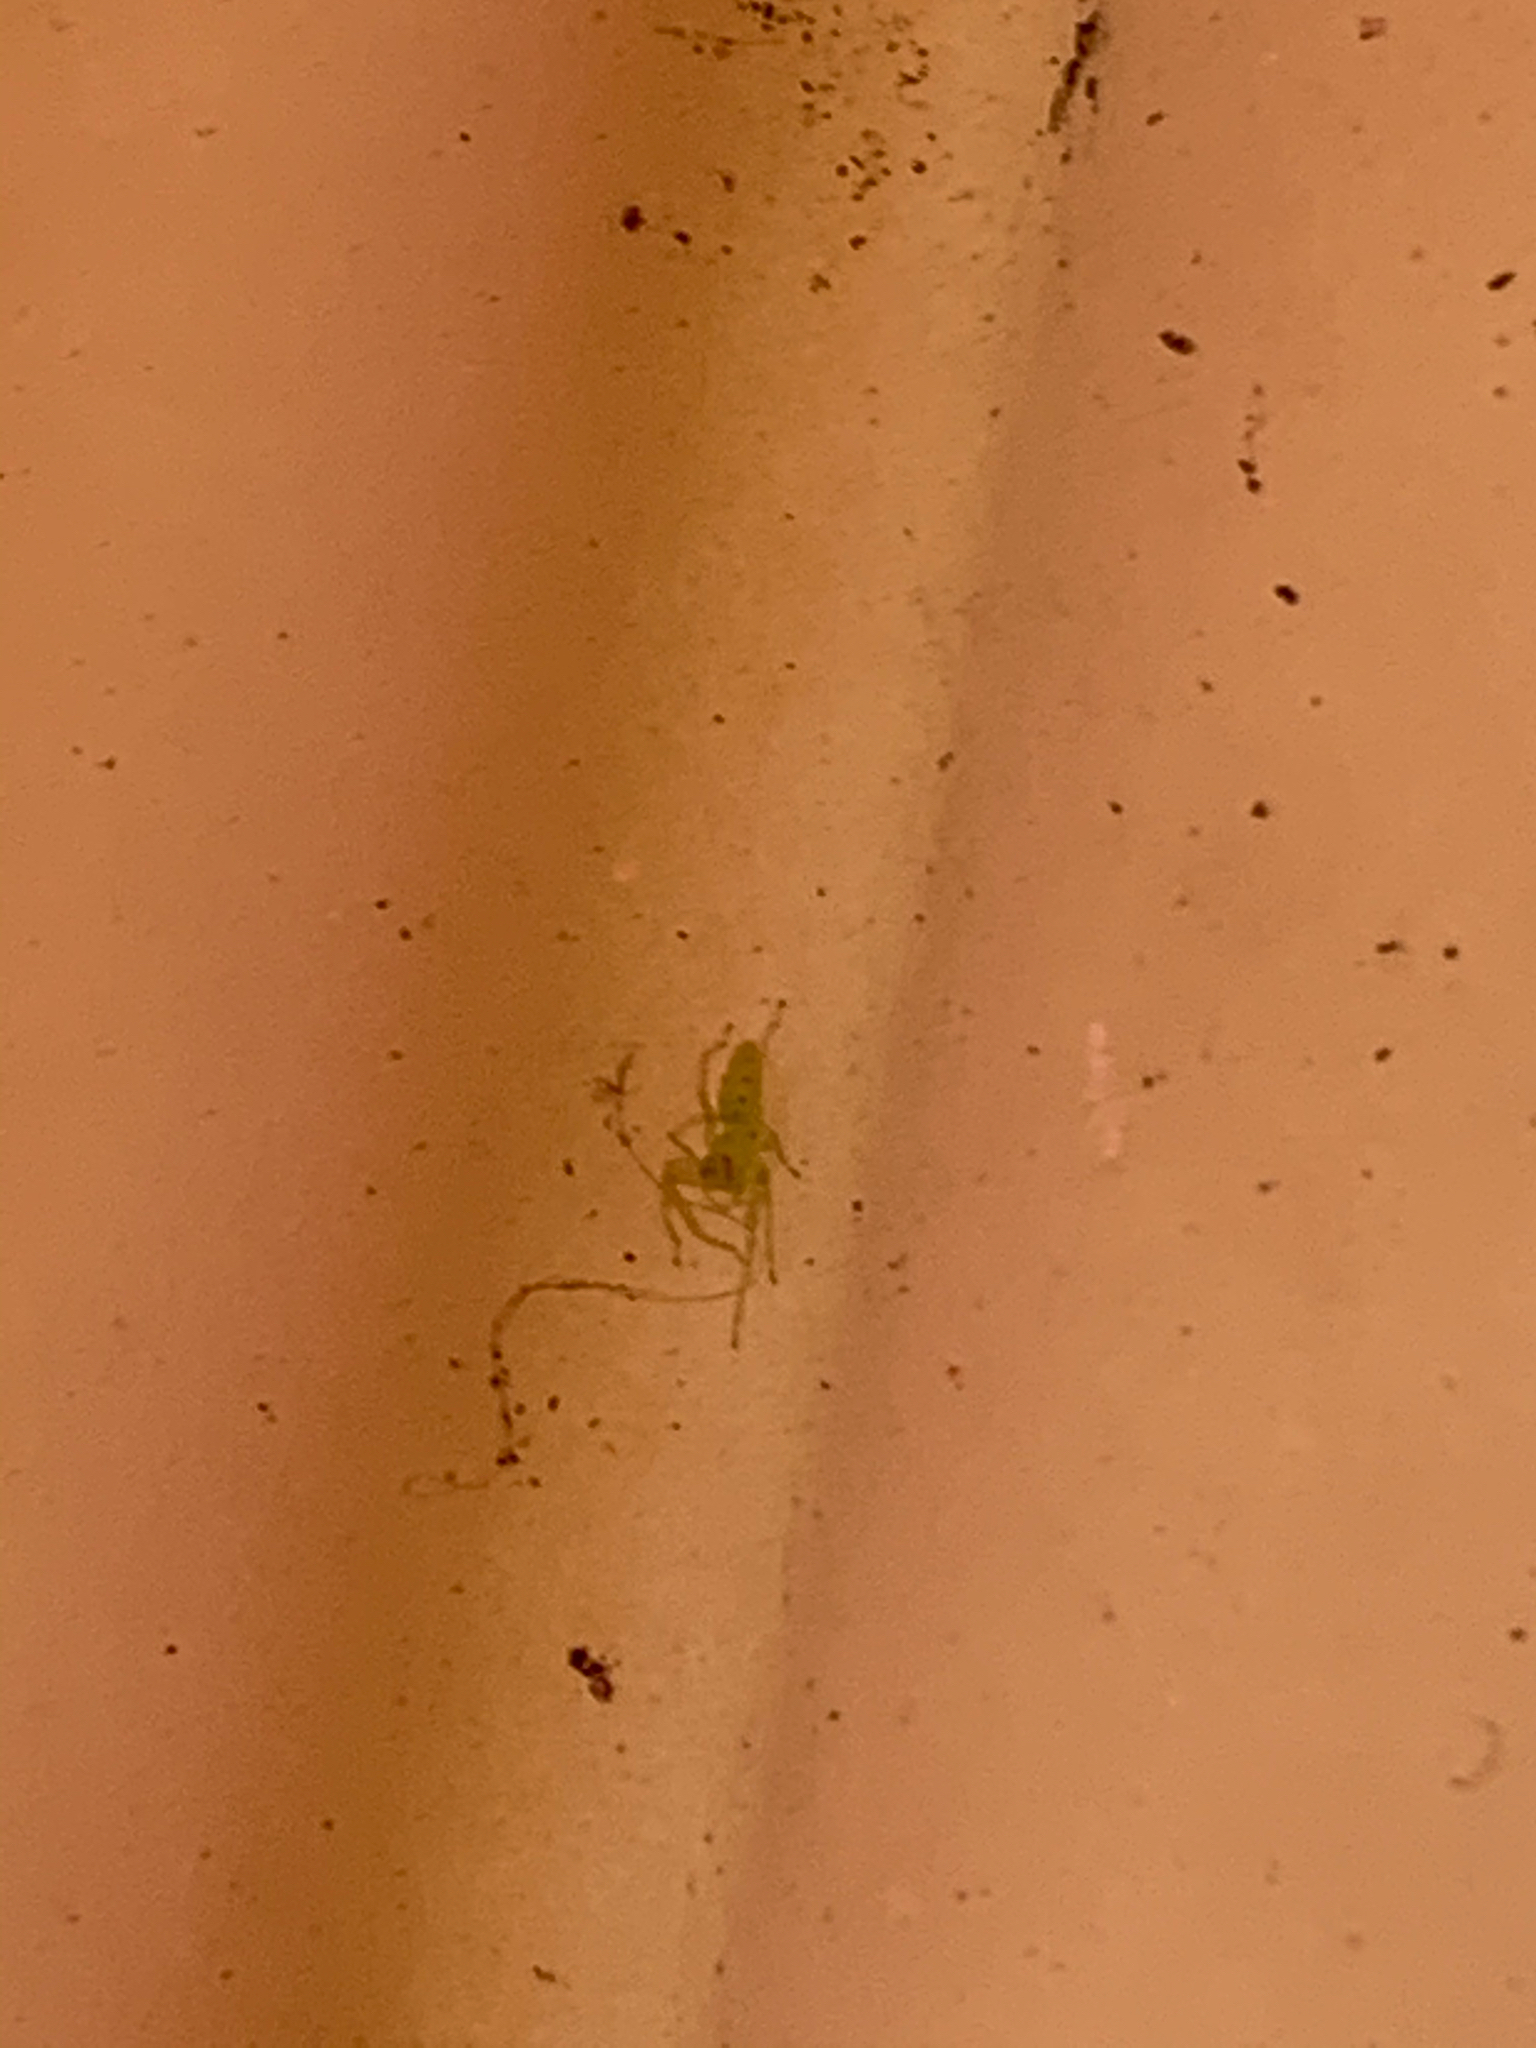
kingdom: Animalia
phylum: Arthropoda
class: Arachnida
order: Araneae
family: Salticidae
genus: Lyssomanes
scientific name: Lyssomanes viridis
